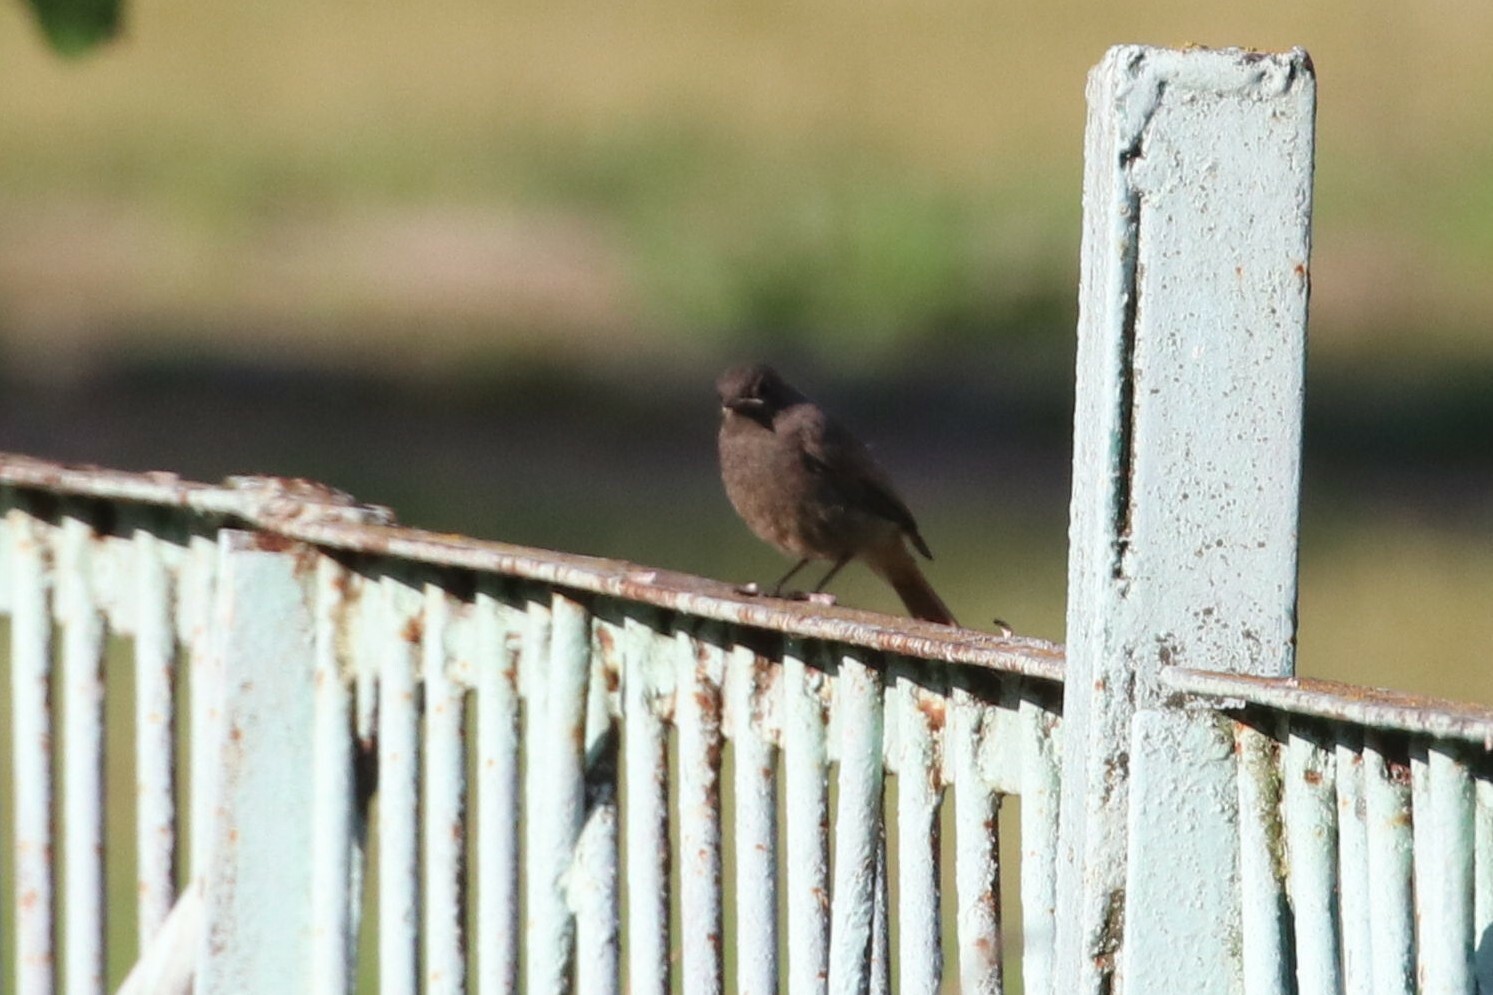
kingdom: Animalia
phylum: Chordata
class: Aves
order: Passeriformes
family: Muscicapidae
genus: Phoenicurus
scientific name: Phoenicurus ochruros
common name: Black redstart
